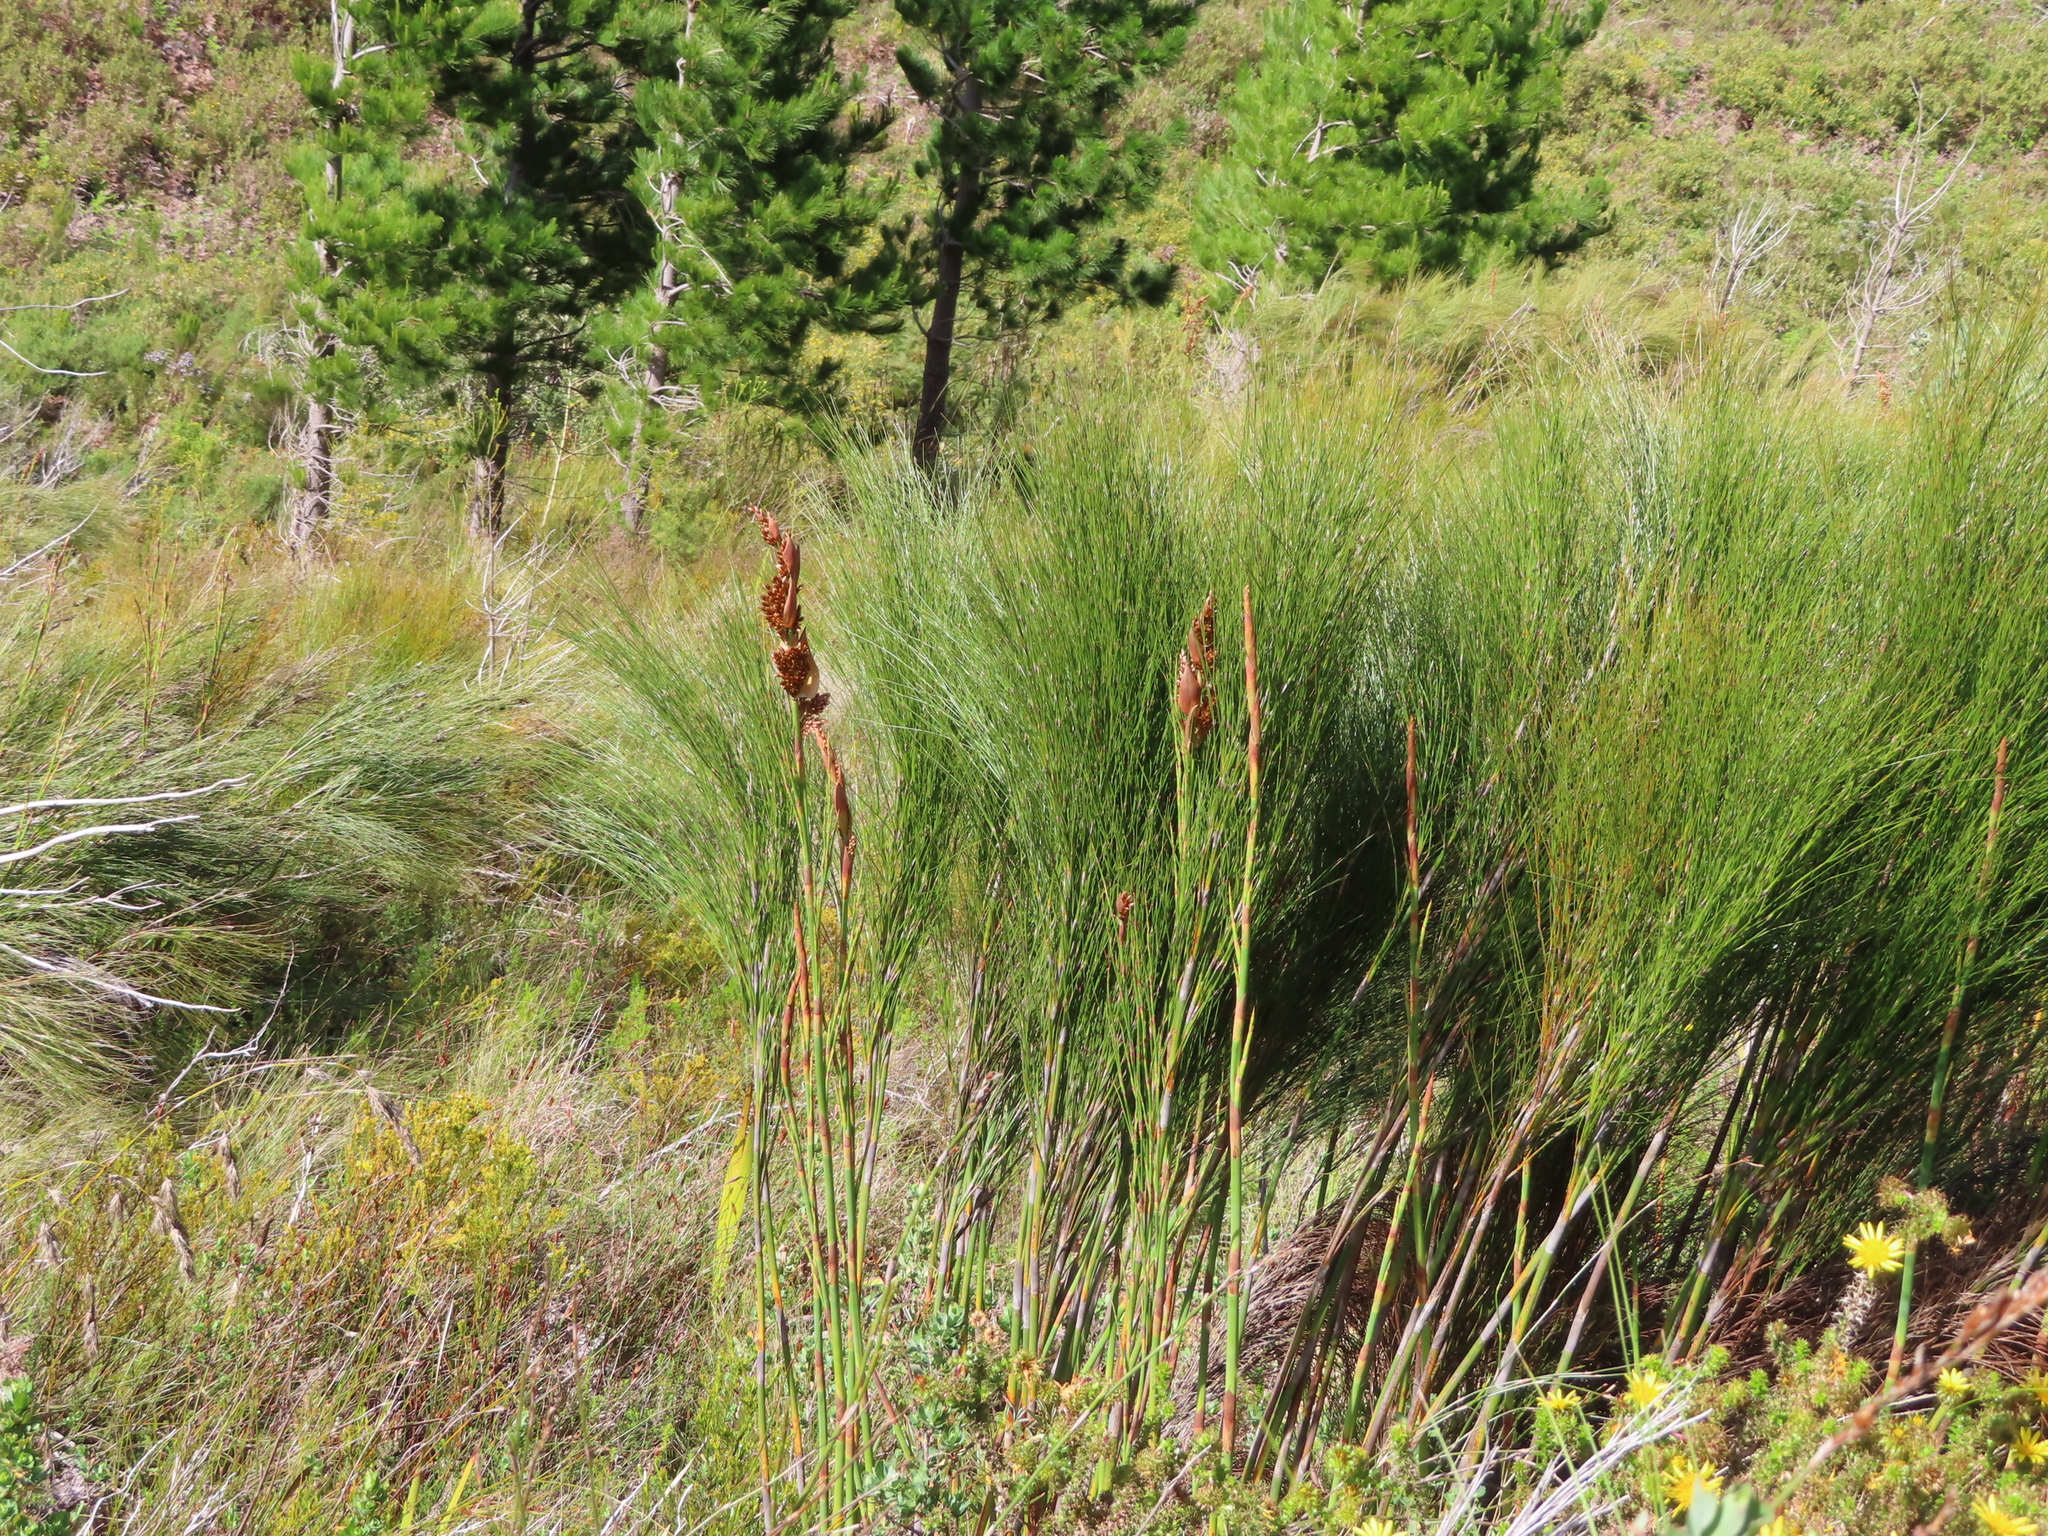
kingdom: Plantae
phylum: Tracheophyta
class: Liliopsida
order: Poales
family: Restionaceae
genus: Cannomois
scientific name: Cannomois virgata
